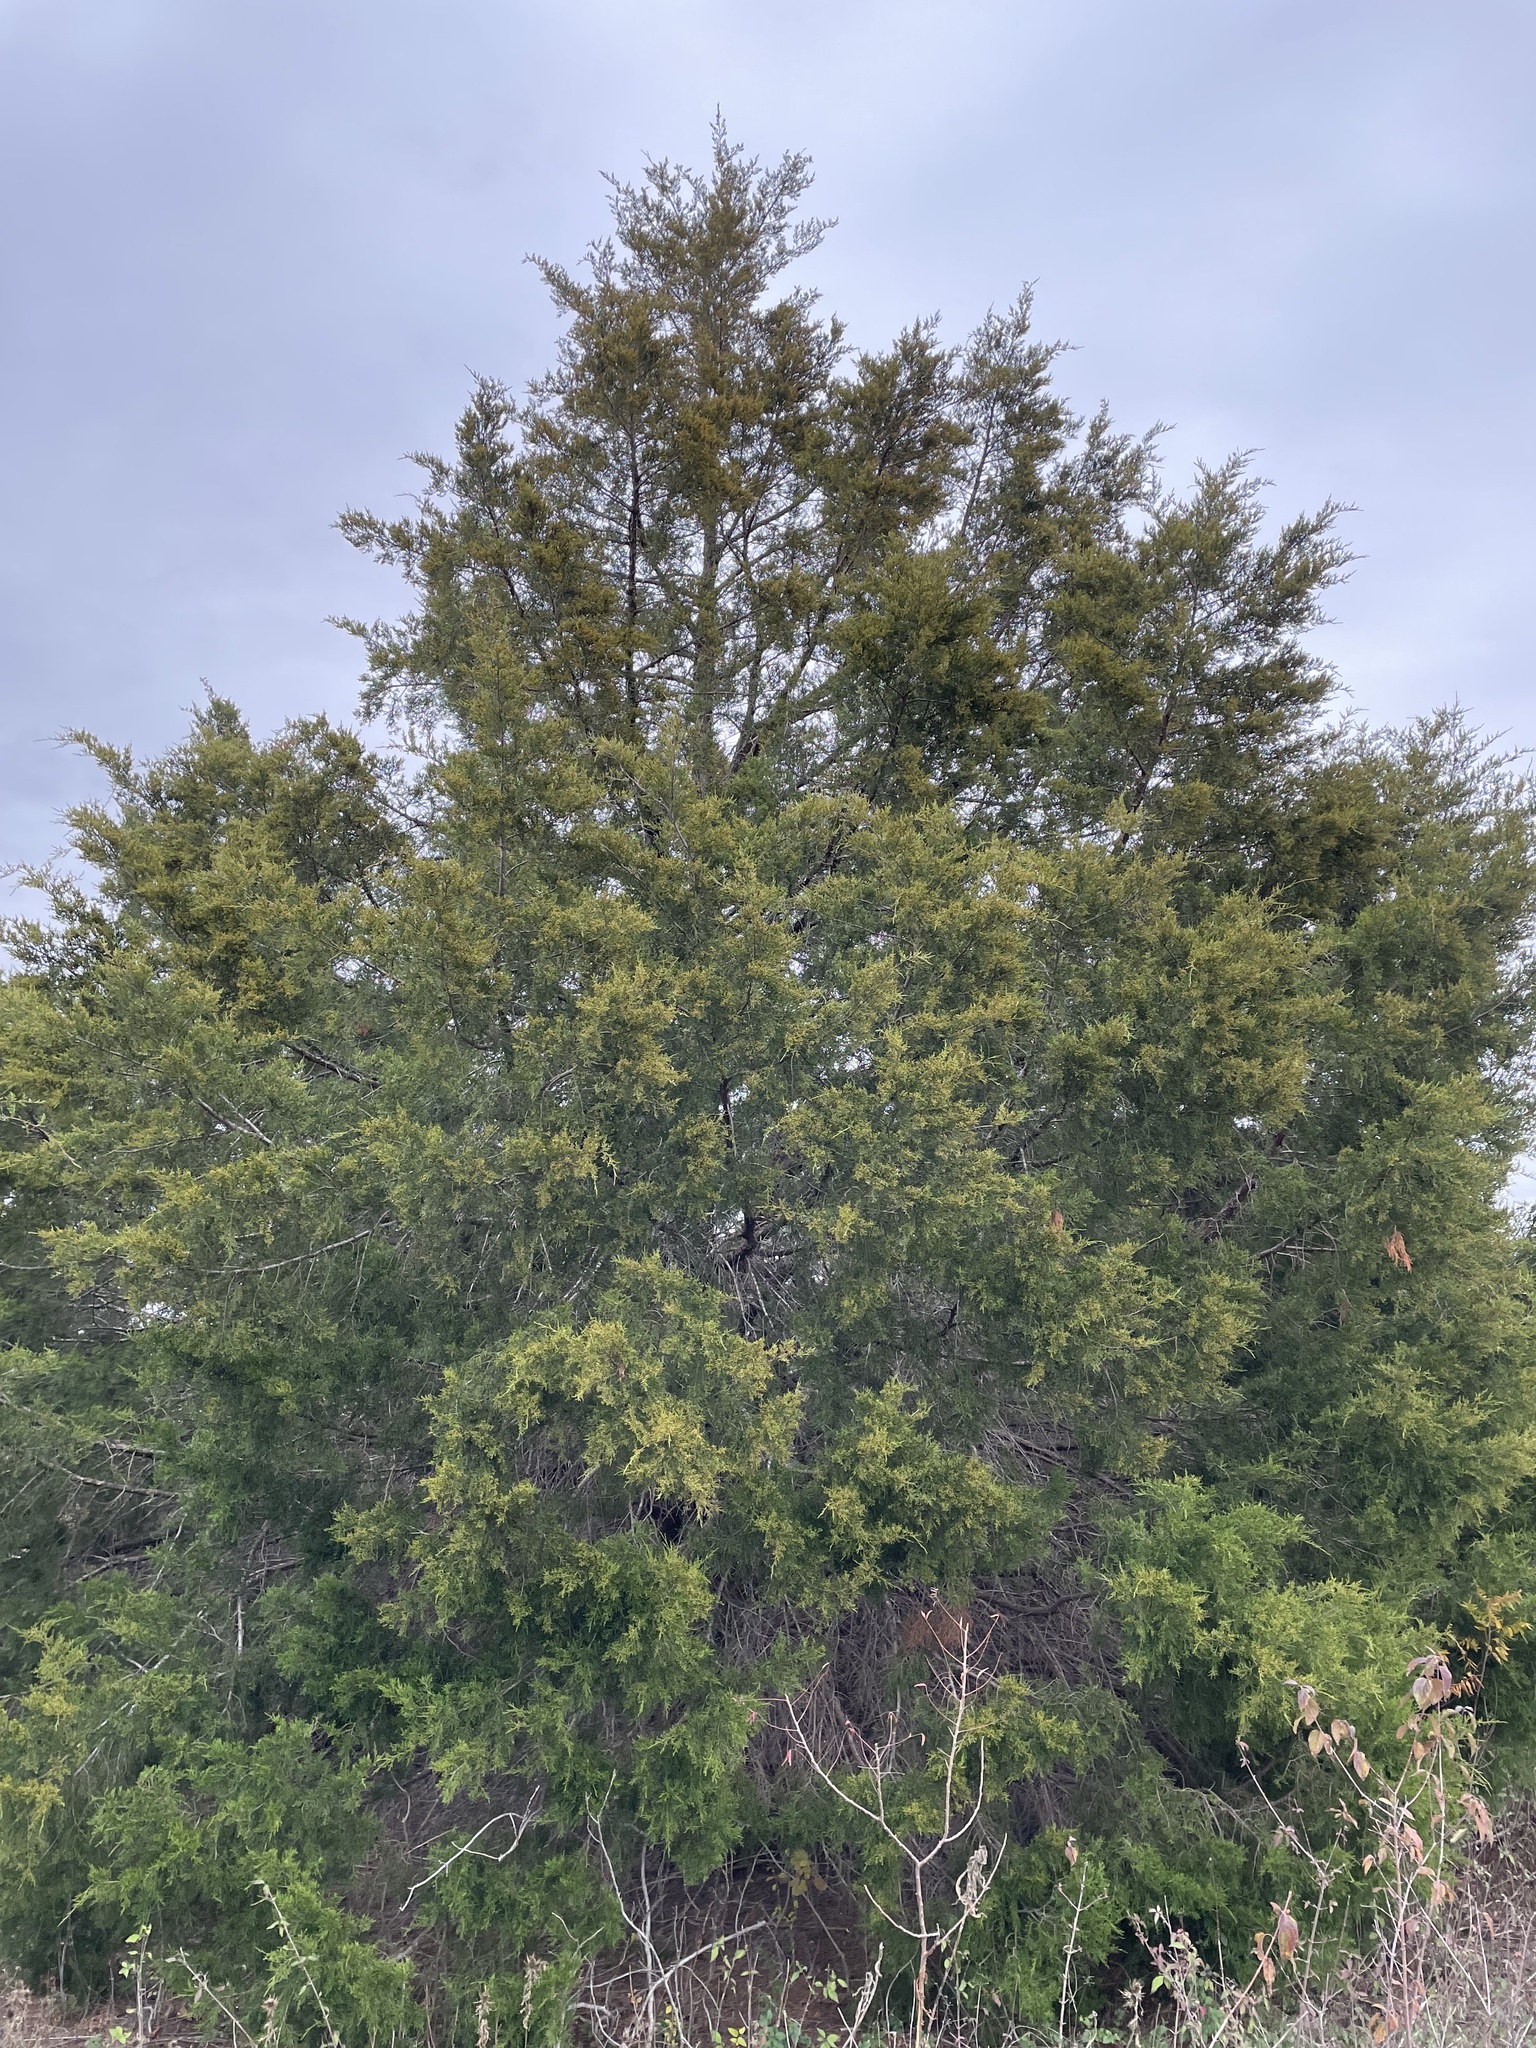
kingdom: Plantae
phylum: Tracheophyta
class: Pinopsida
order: Pinales
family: Cupressaceae
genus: Juniperus
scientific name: Juniperus virginiana
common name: Red juniper
